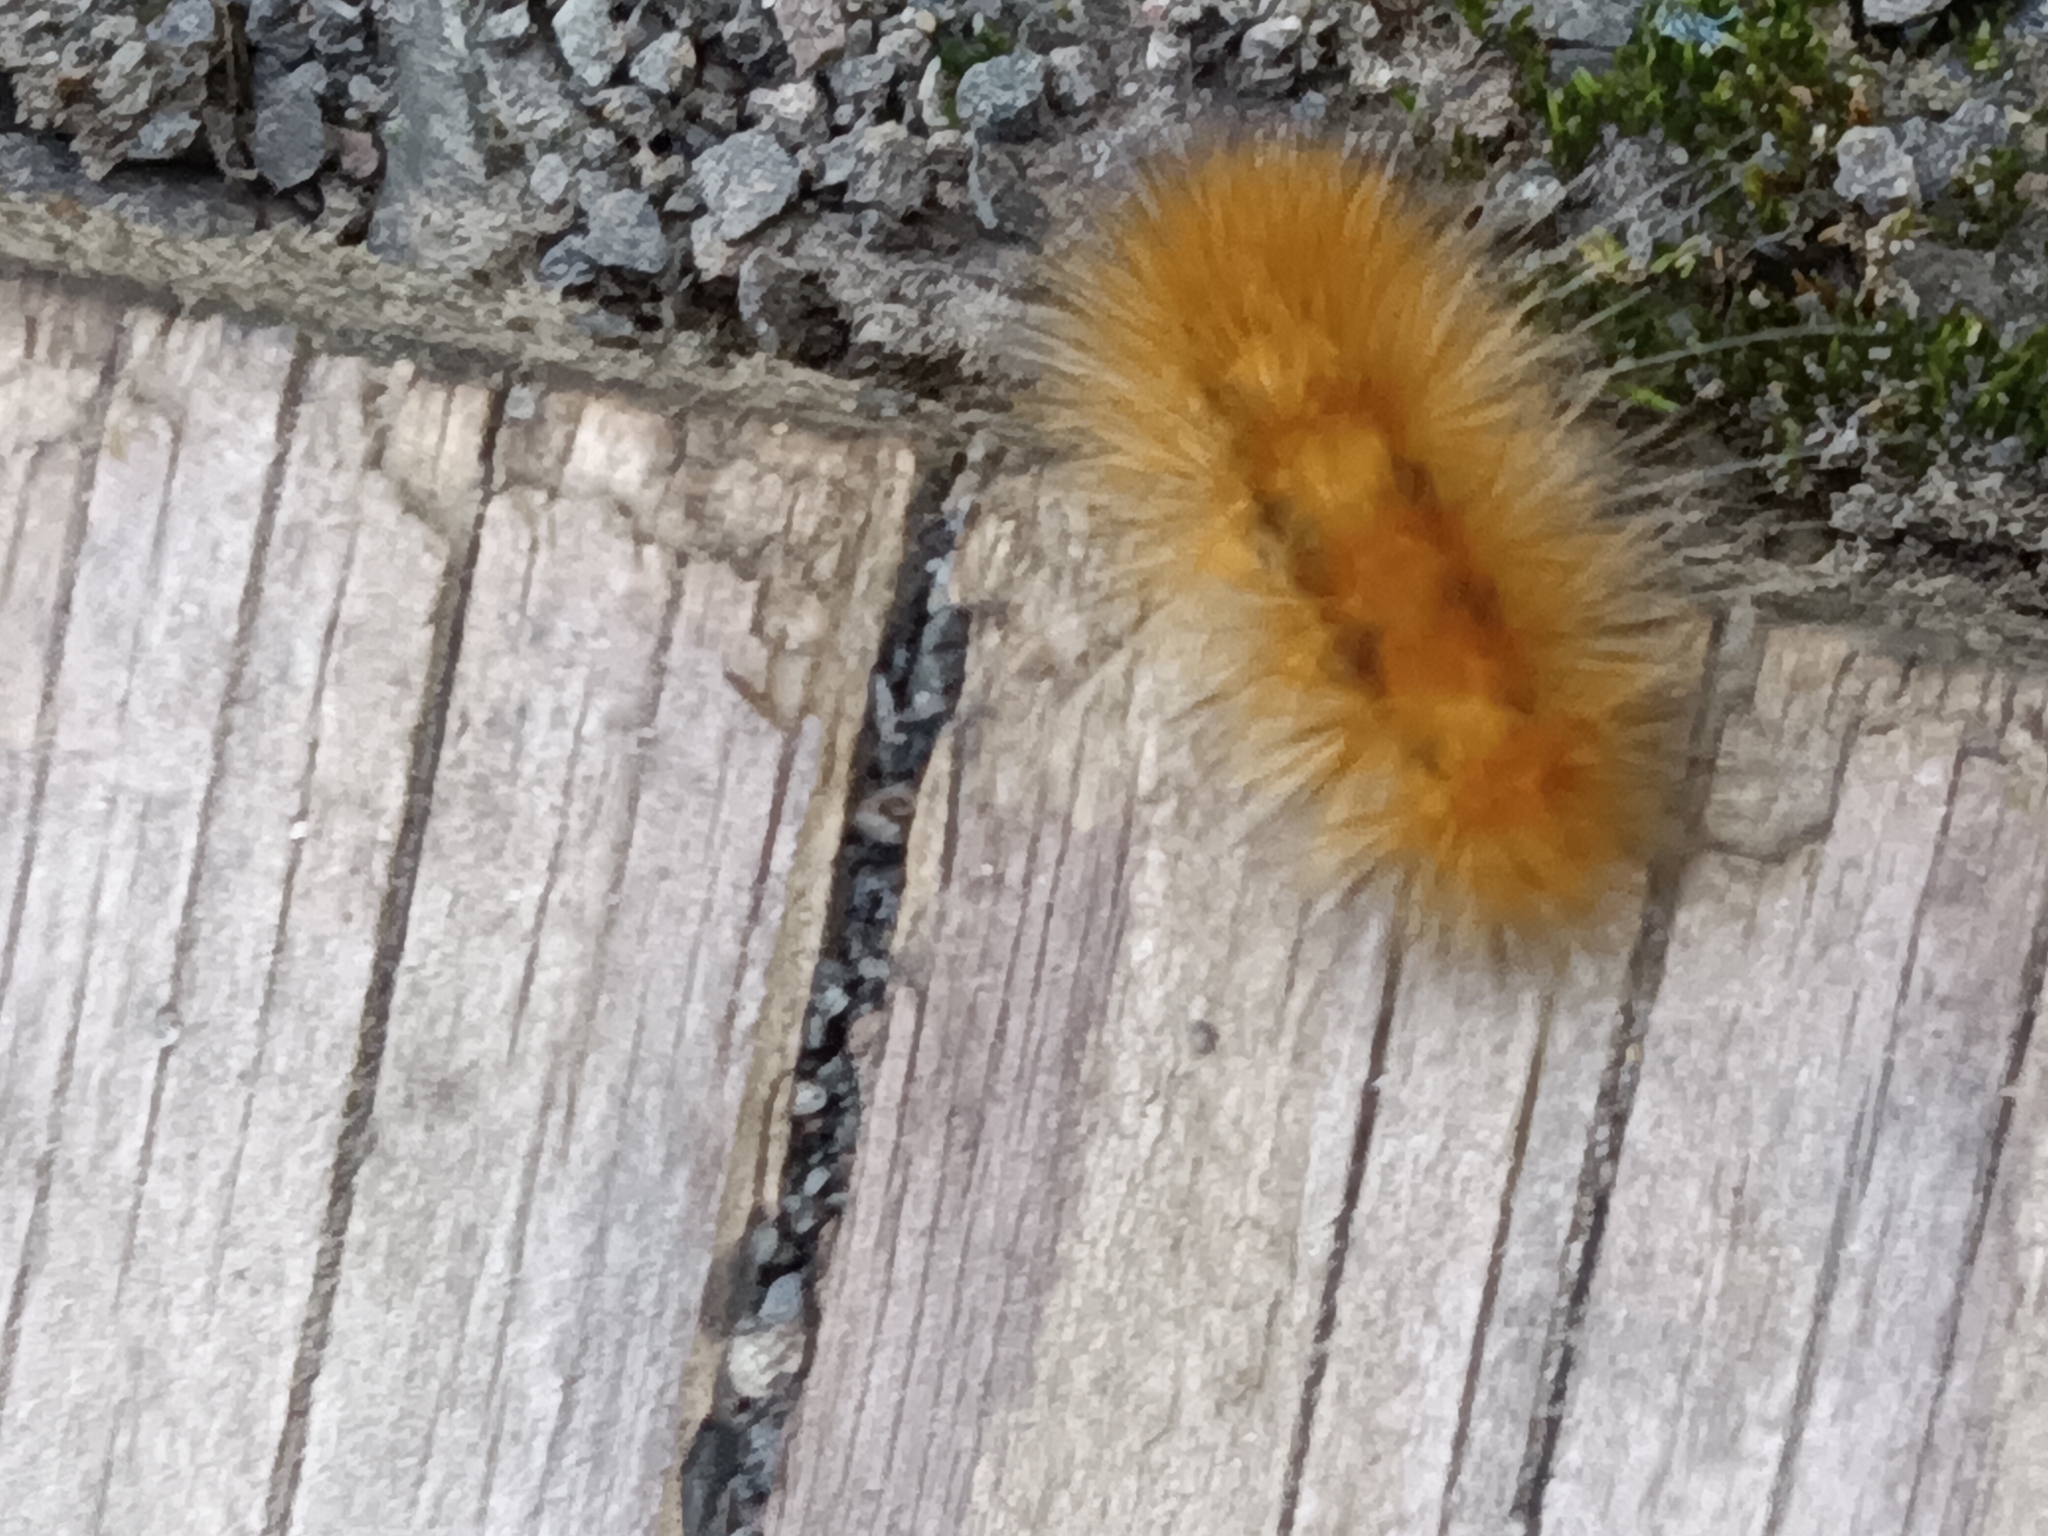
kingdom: Animalia
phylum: Arthropoda
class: Insecta
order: Lepidoptera
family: Erebidae
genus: Spilosoma
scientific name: Spilosoma virginica
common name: Virginia tiger moth
